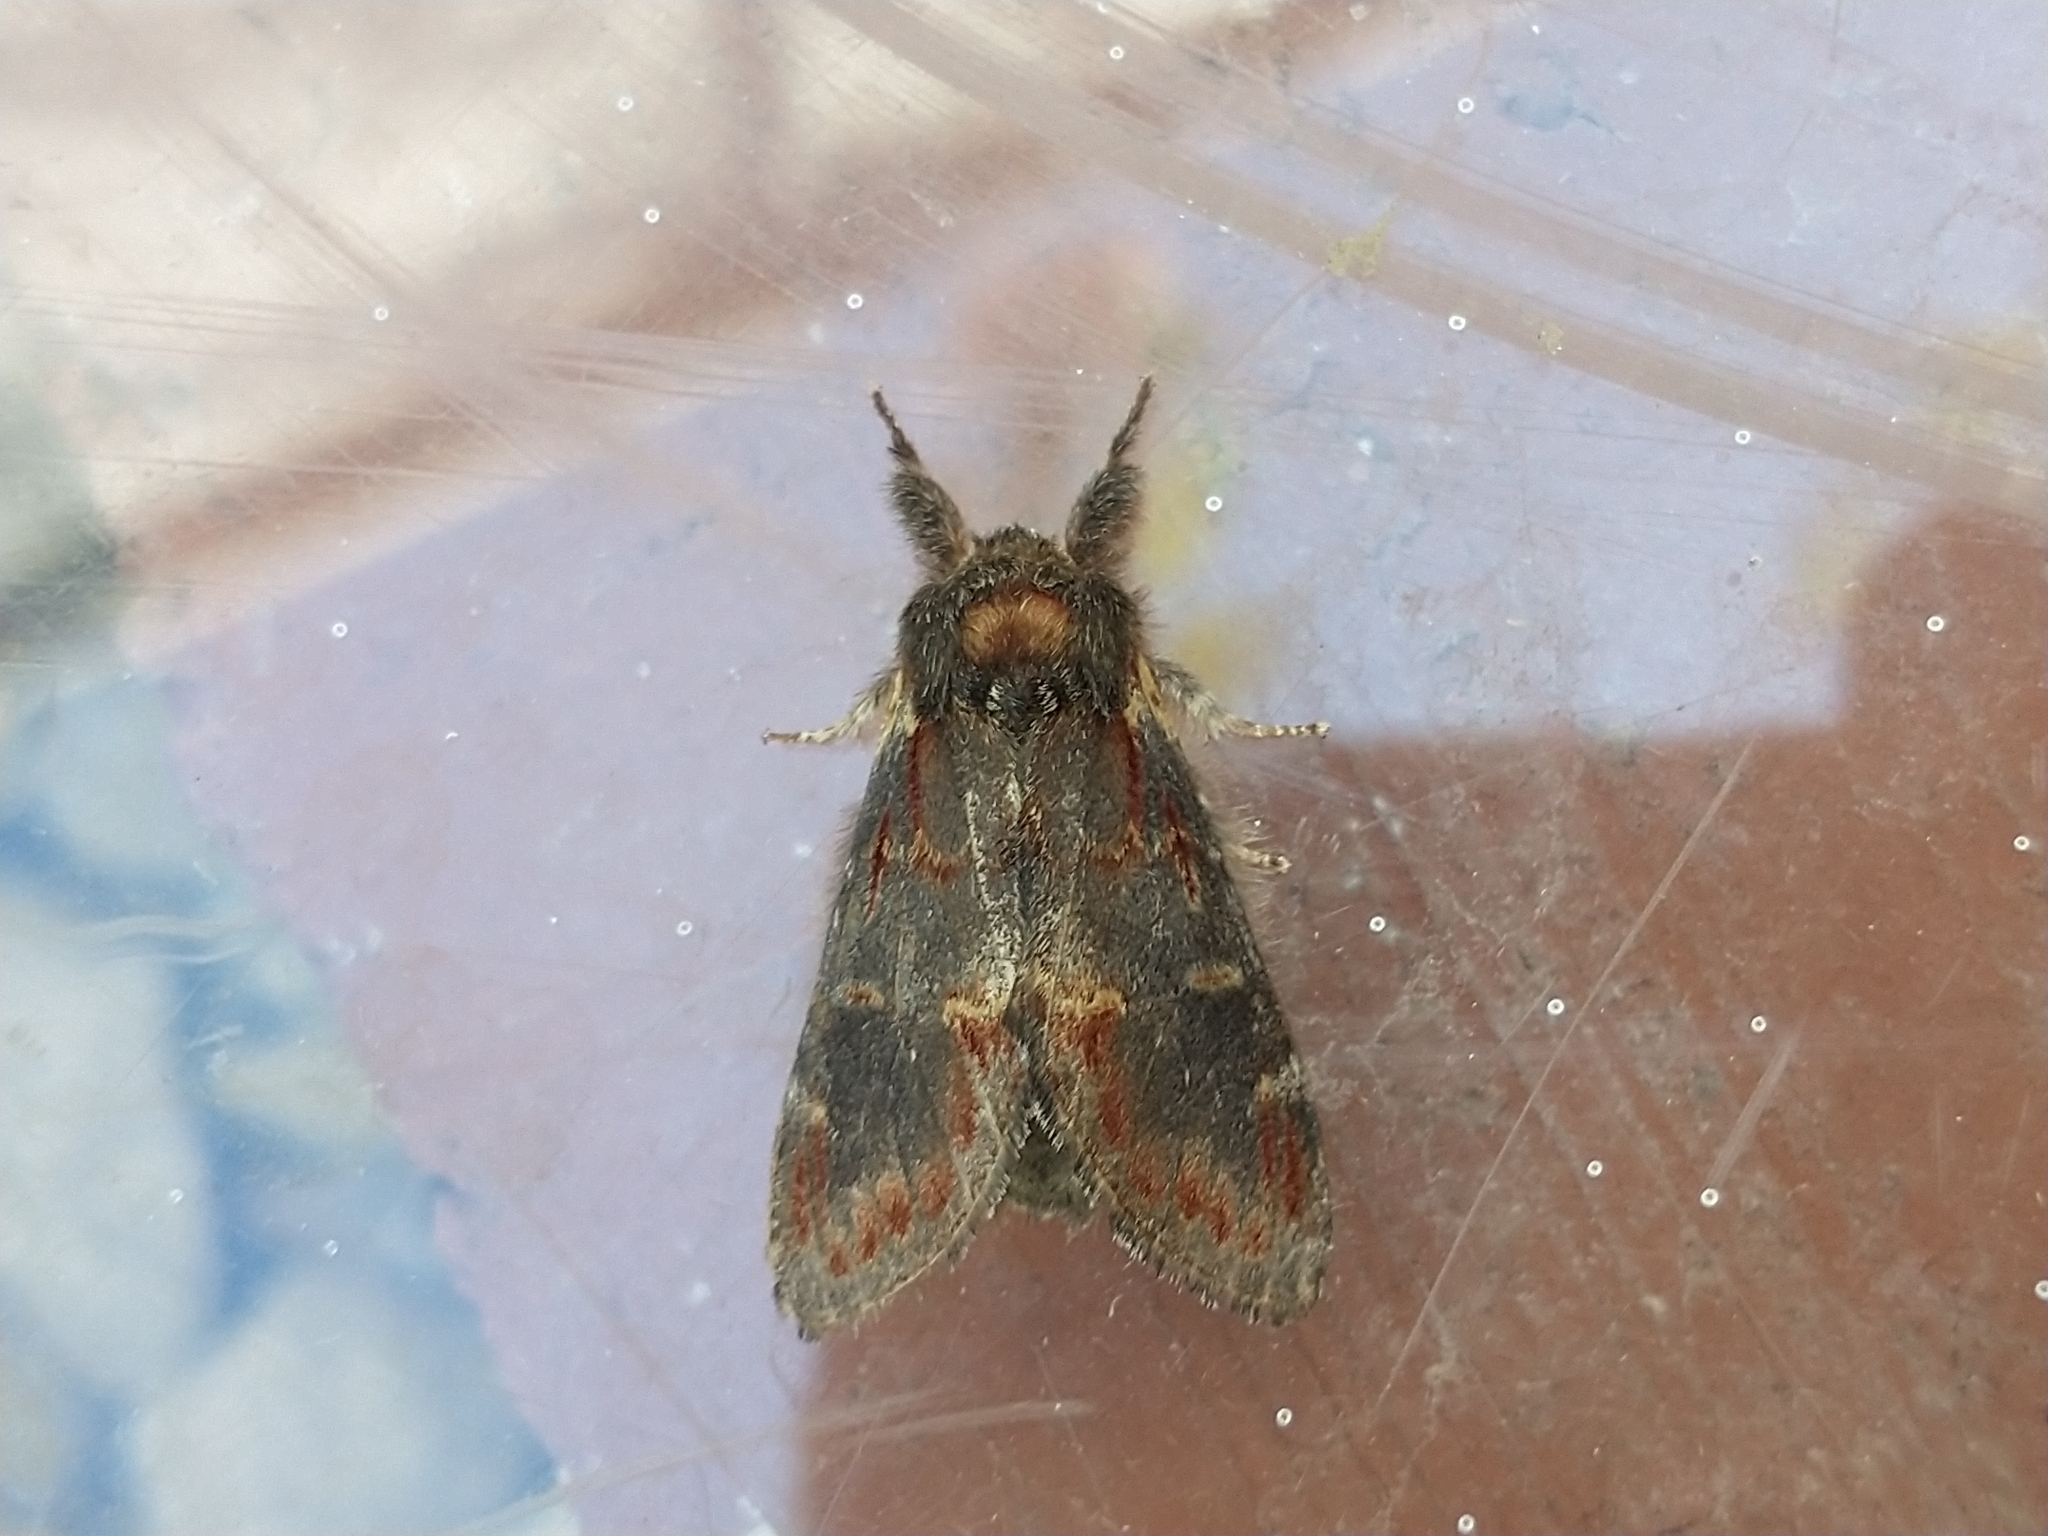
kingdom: Animalia
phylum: Arthropoda
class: Insecta
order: Lepidoptera
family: Notodontidae
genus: Notodonta
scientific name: Notodonta dromedarius
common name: Iron prominent
